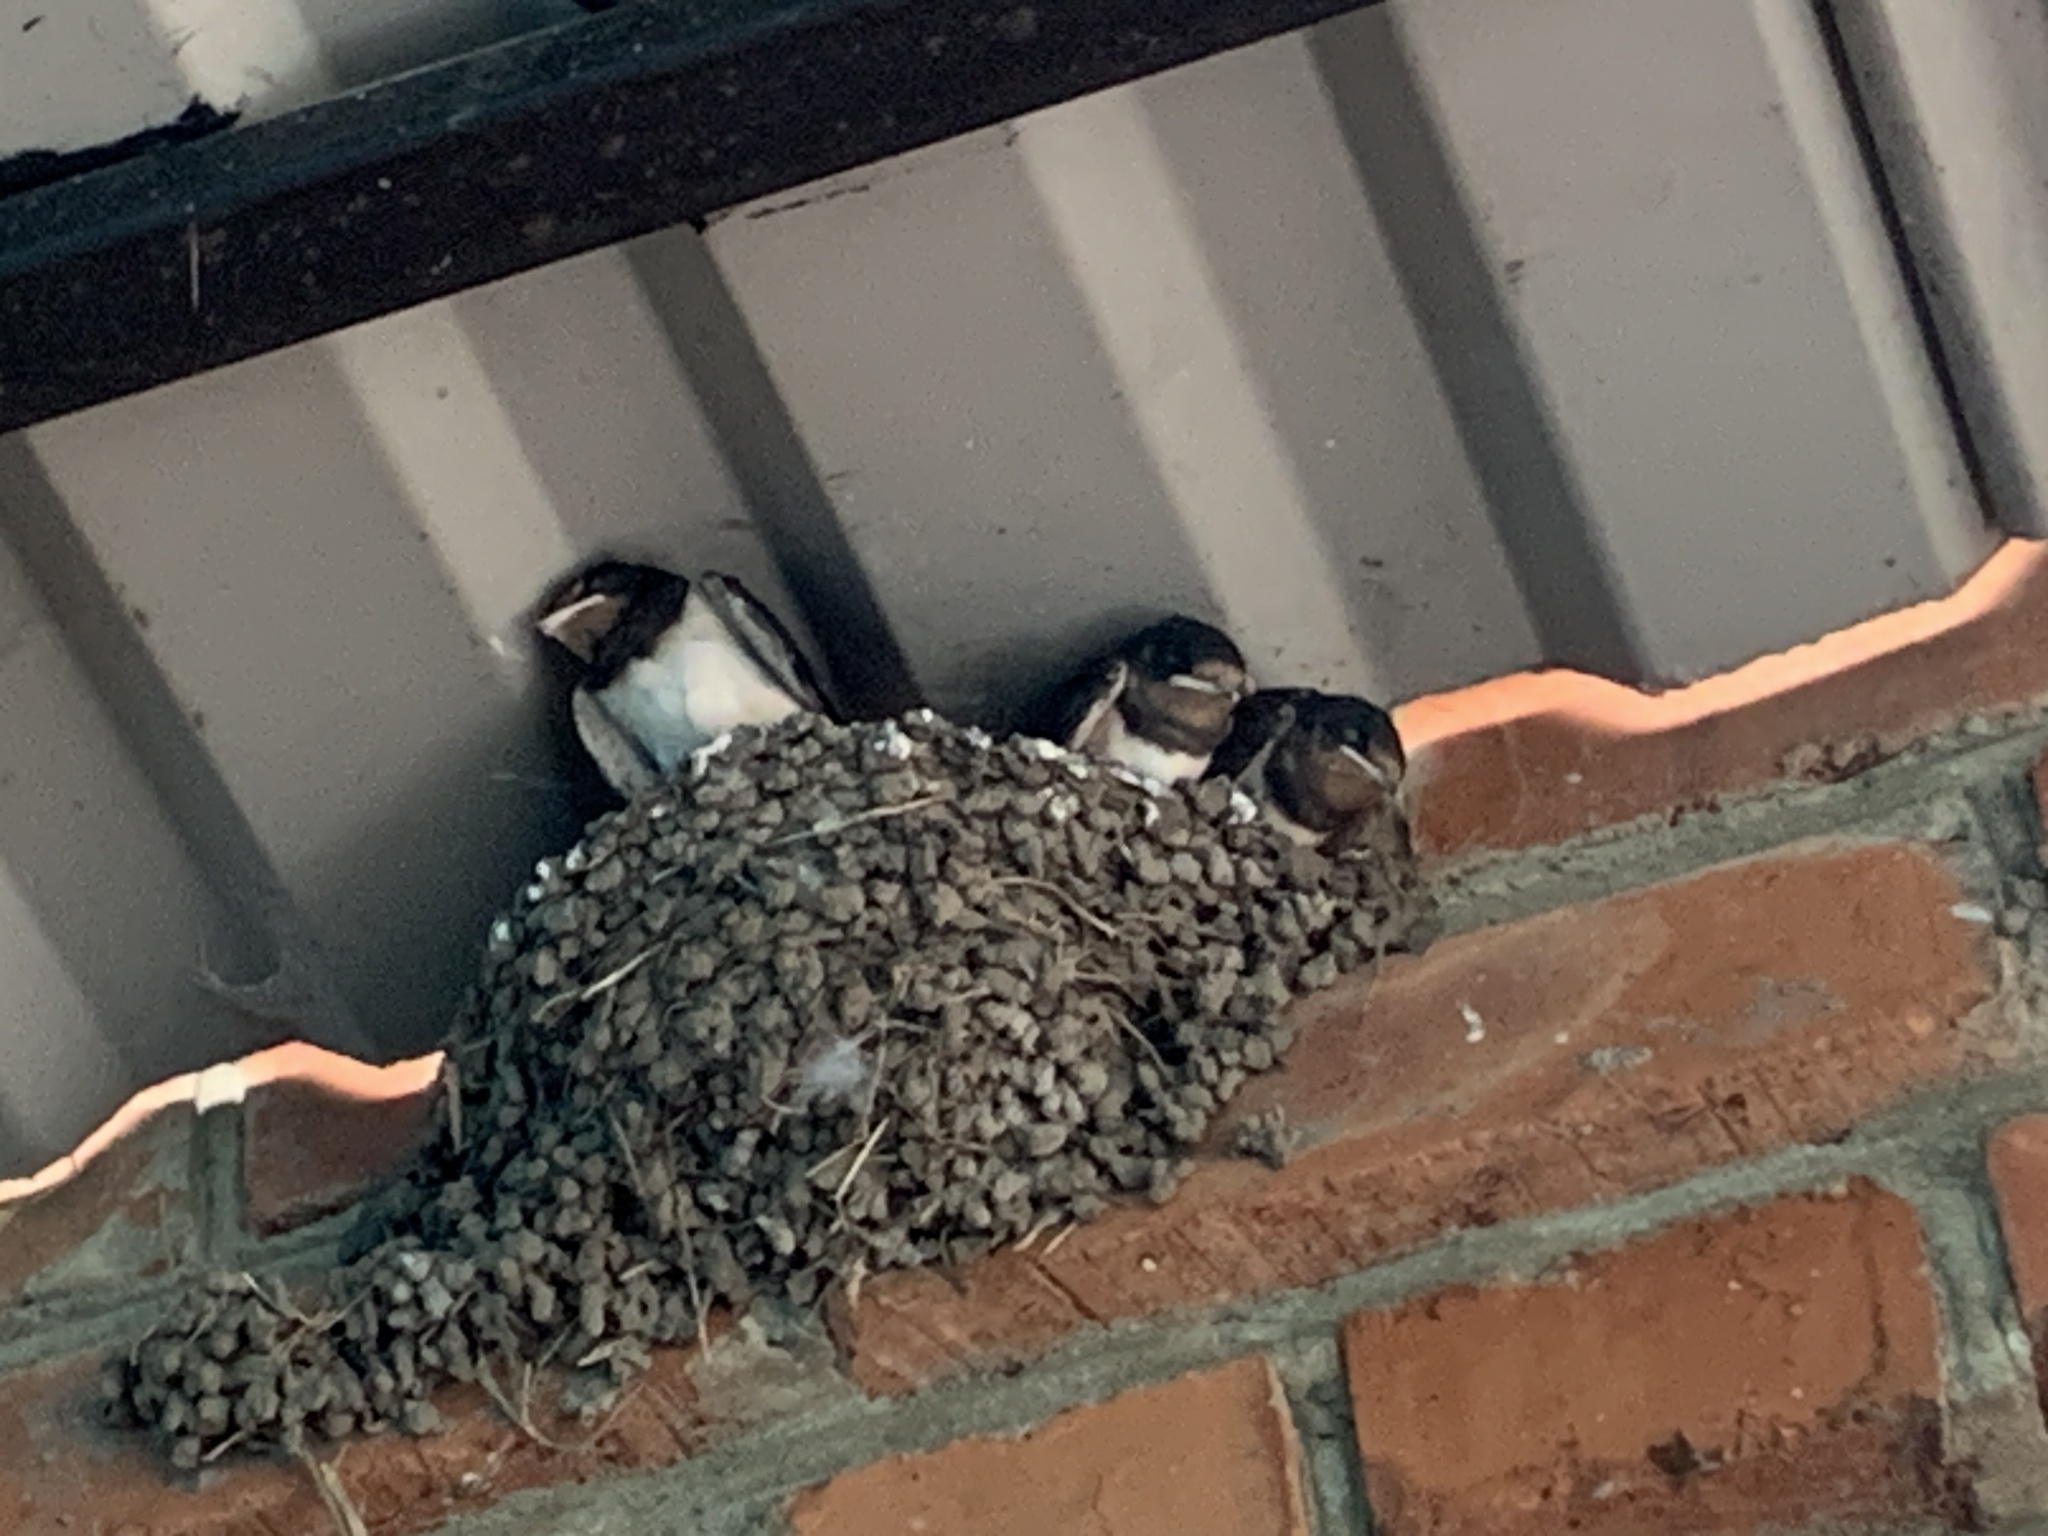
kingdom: Animalia
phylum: Chordata
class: Aves
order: Passeriformes
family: Hirundinidae
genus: Hirundo
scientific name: Hirundo rustica
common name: Barn swallow
